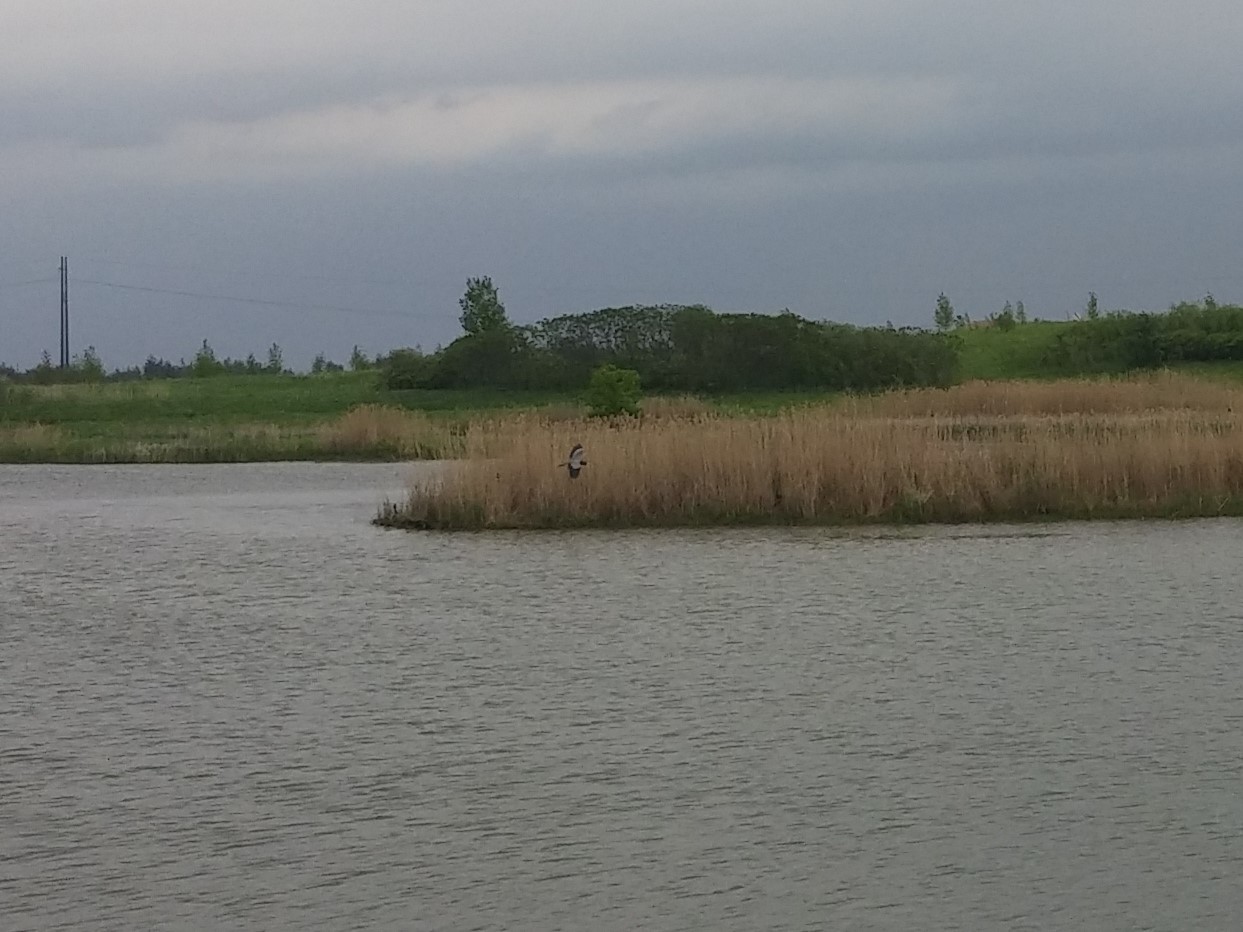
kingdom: Animalia
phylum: Chordata
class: Aves
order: Pelecaniformes
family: Ardeidae
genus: Ardea
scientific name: Ardea herodias
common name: Great blue heron
